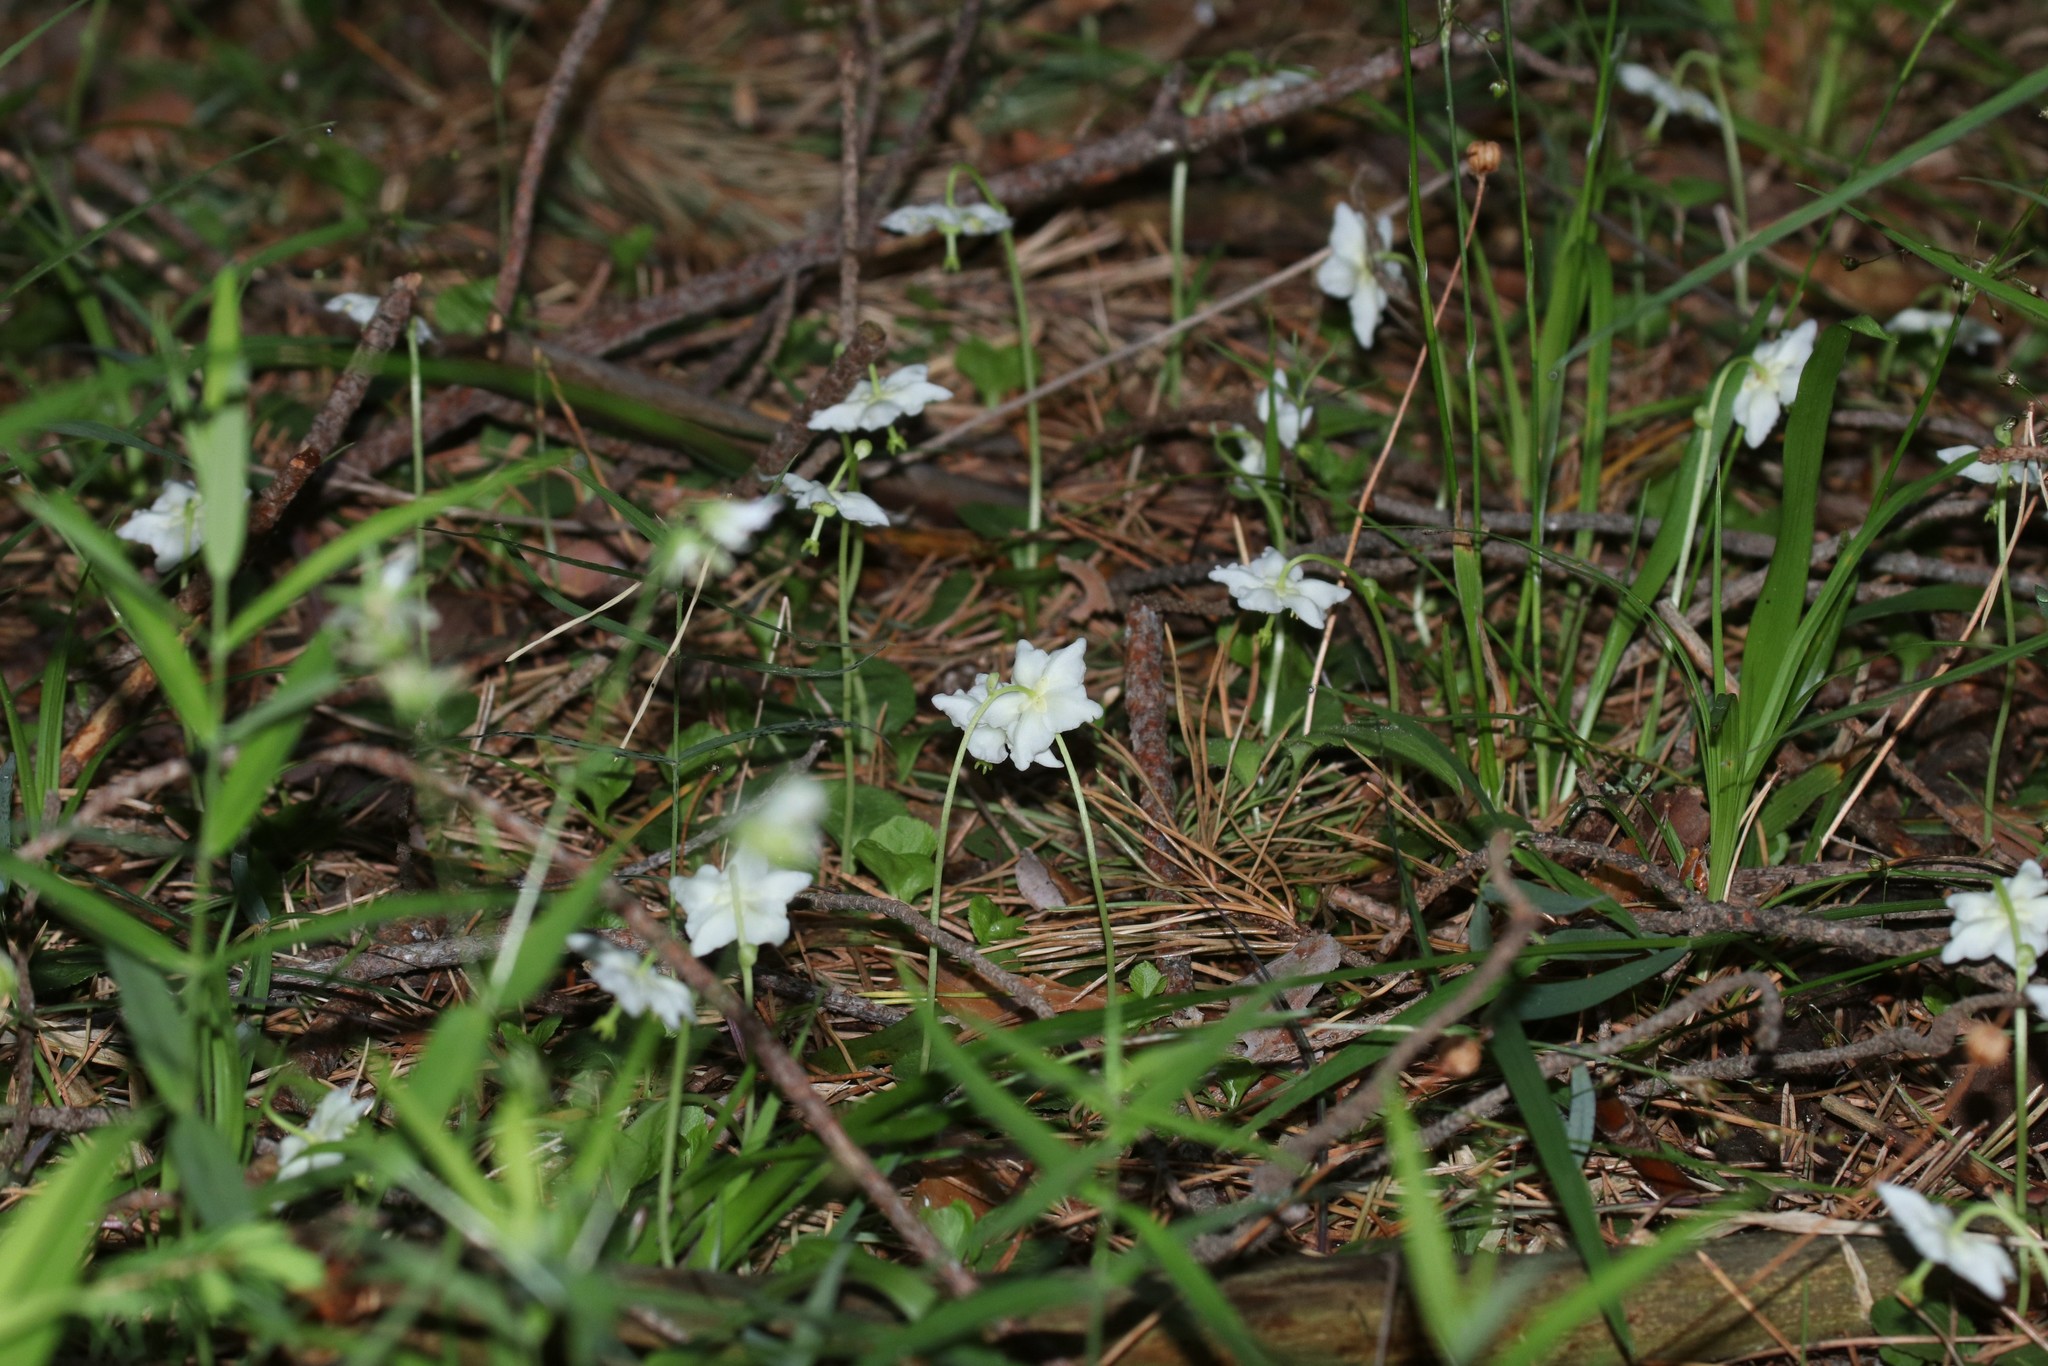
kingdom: Plantae
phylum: Tracheophyta
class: Magnoliopsida
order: Ericales
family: Ericaceae
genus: Moneses
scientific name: Moneses uniflora
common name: One-flowered wintergreen
